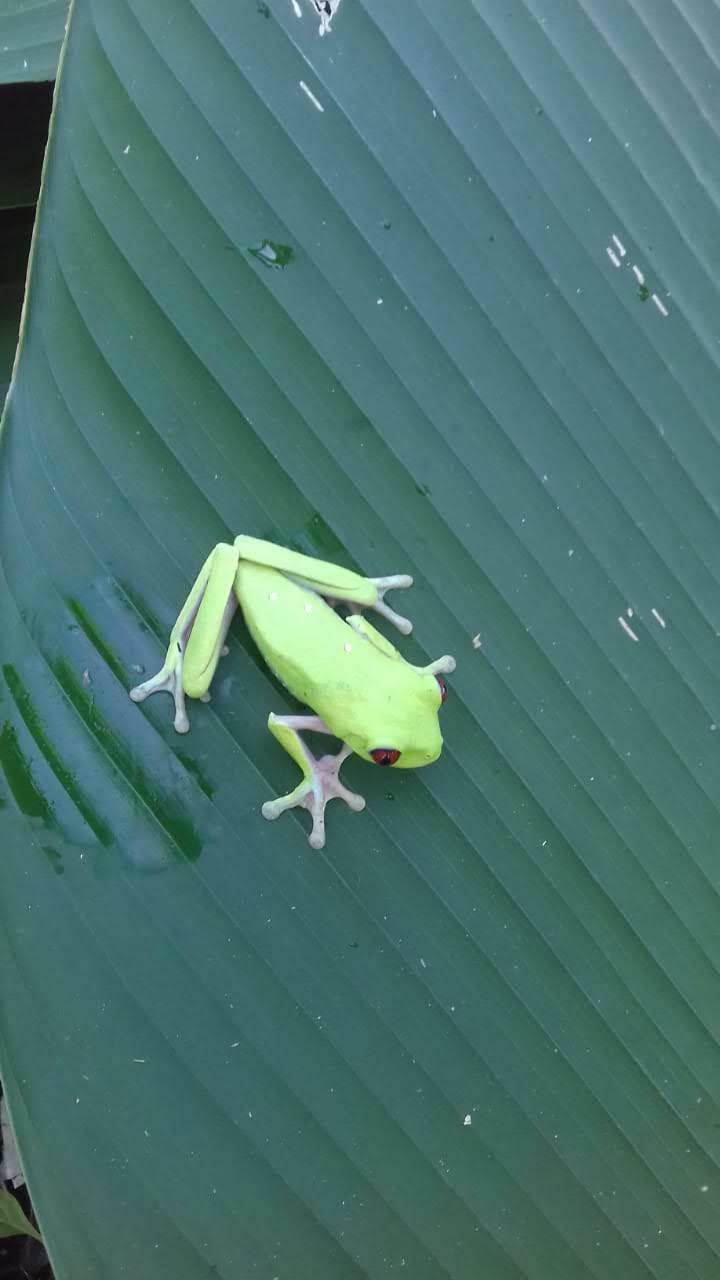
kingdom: Animalia
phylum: Chordata
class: Amphibia
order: Anura
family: Phyllomedusidae
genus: Agalychnis
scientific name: Agalychnis callidryas
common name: Red-eyed treefrog
